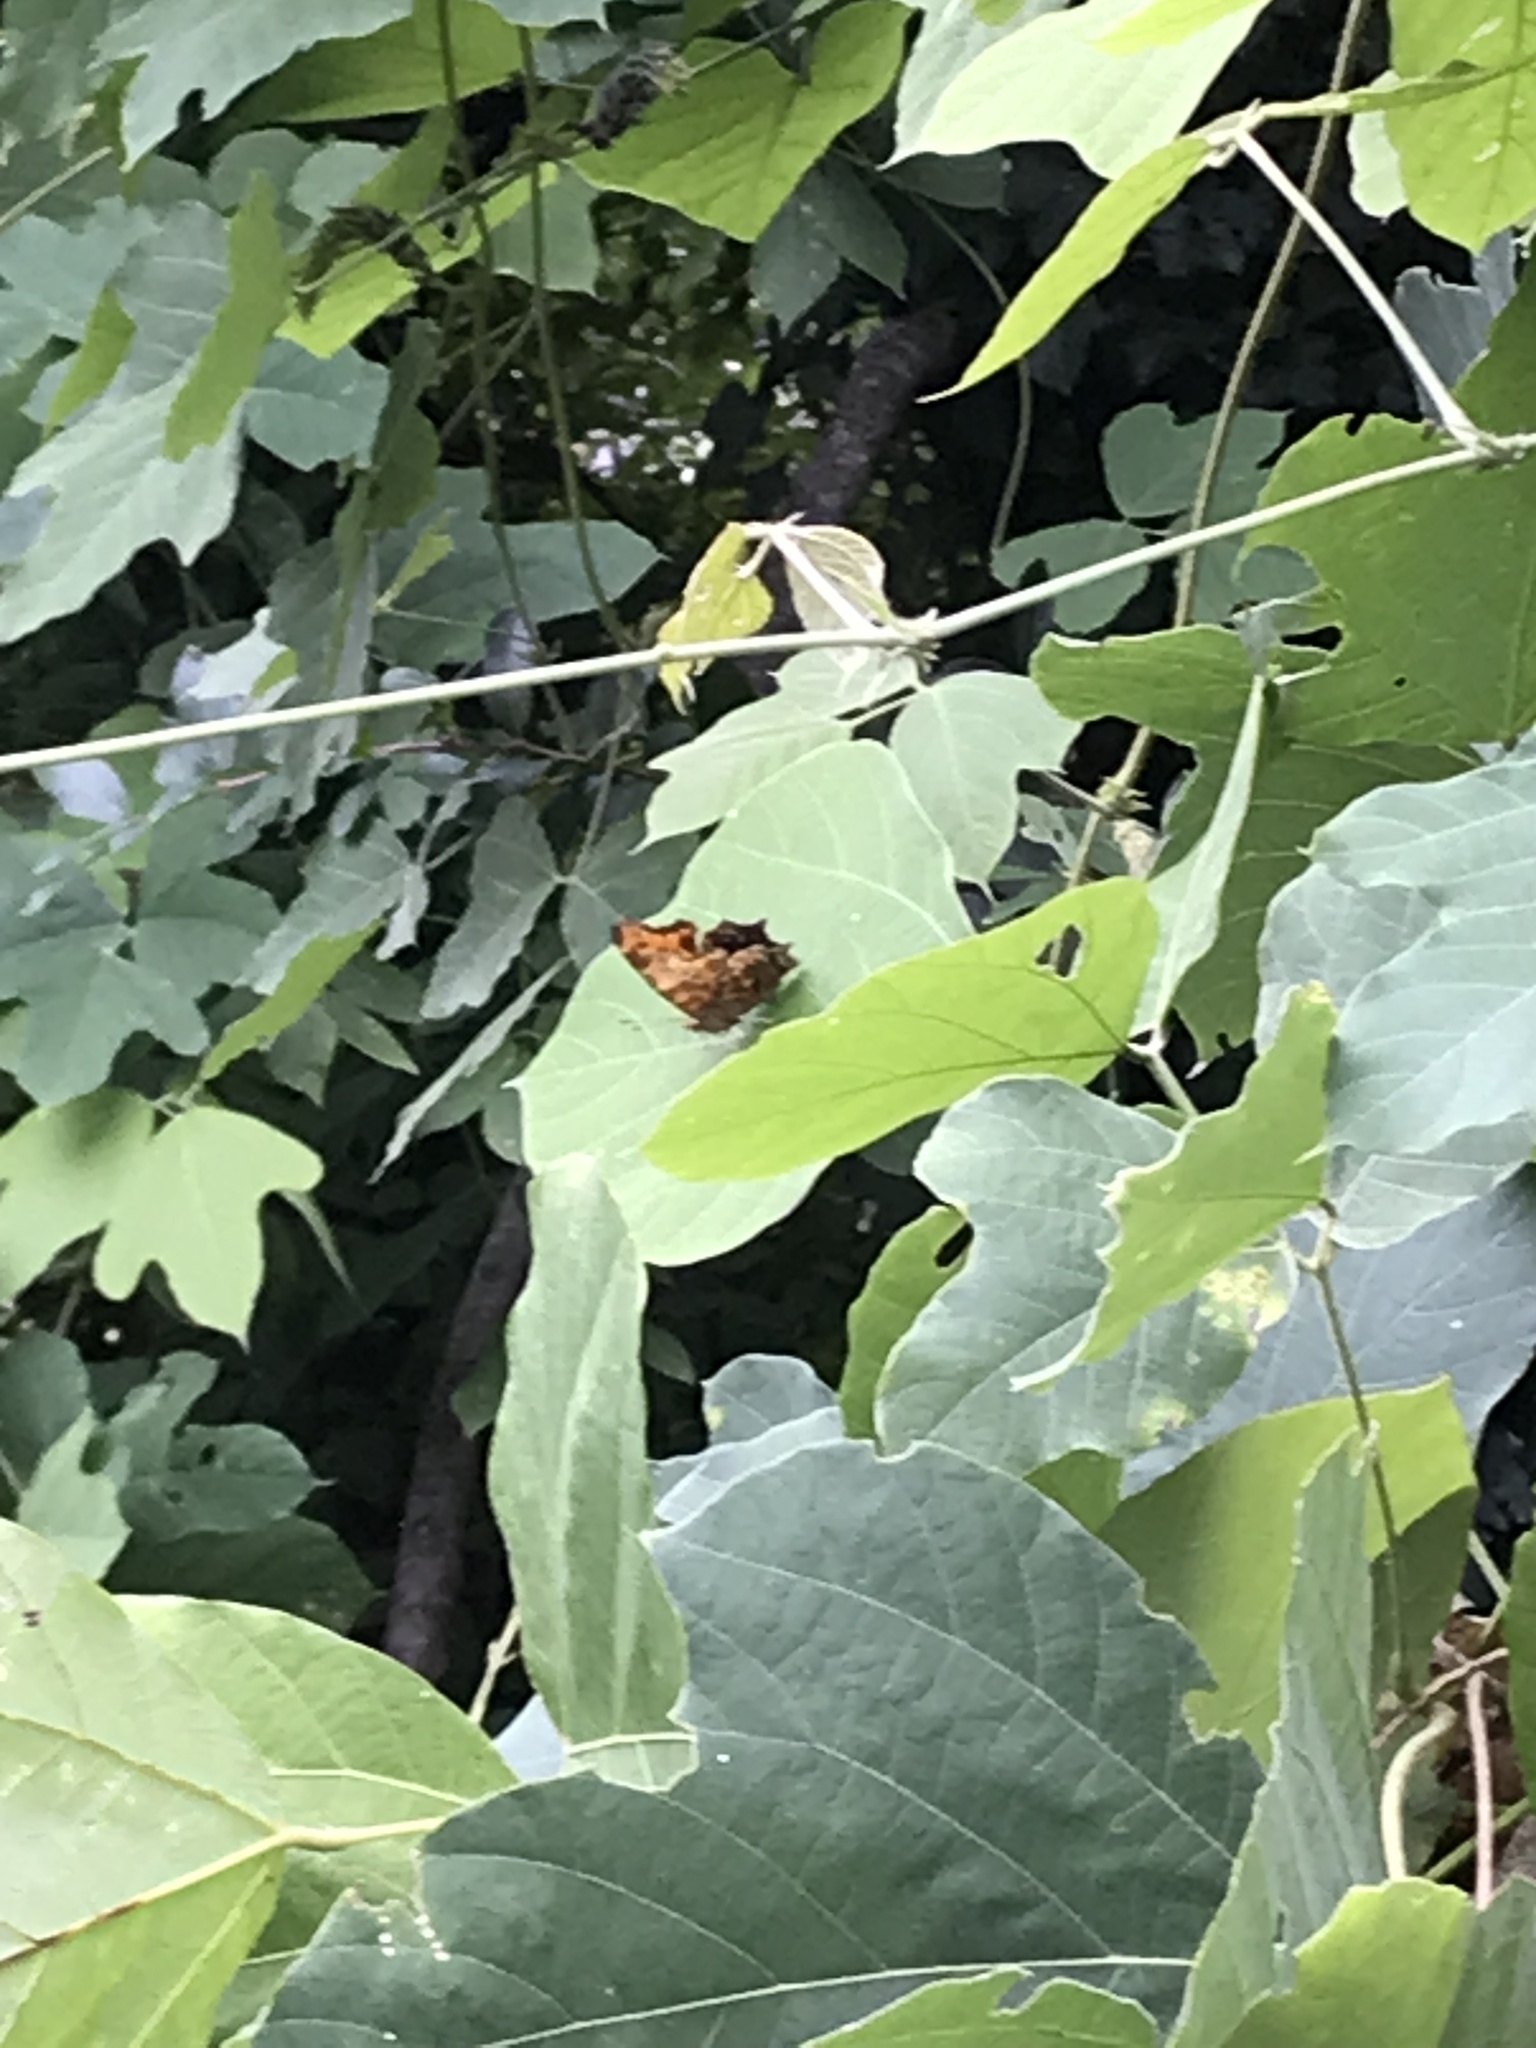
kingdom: Animalia
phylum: Arthropoda
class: Insecta
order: Lepidoptera
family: Nymphalidae
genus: Polygonia
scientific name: Polygonia comma
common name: Eastern comma
